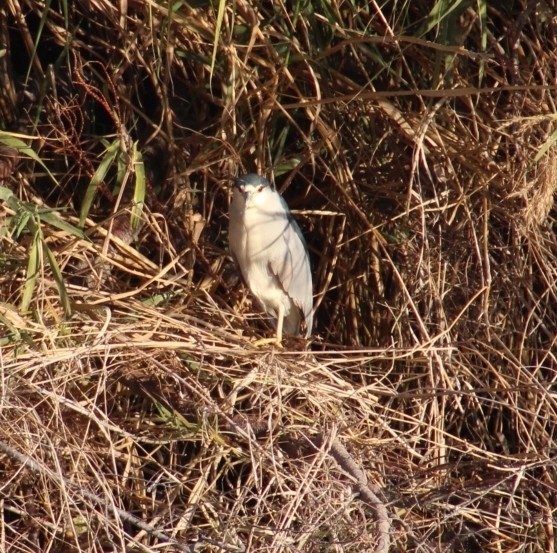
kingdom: Animalia
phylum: Chordata
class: Aves
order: Pelecaniformes
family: Ardeidae
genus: Nycticorax
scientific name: Nycticorax nycticorax
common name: Black-crowned night heron
